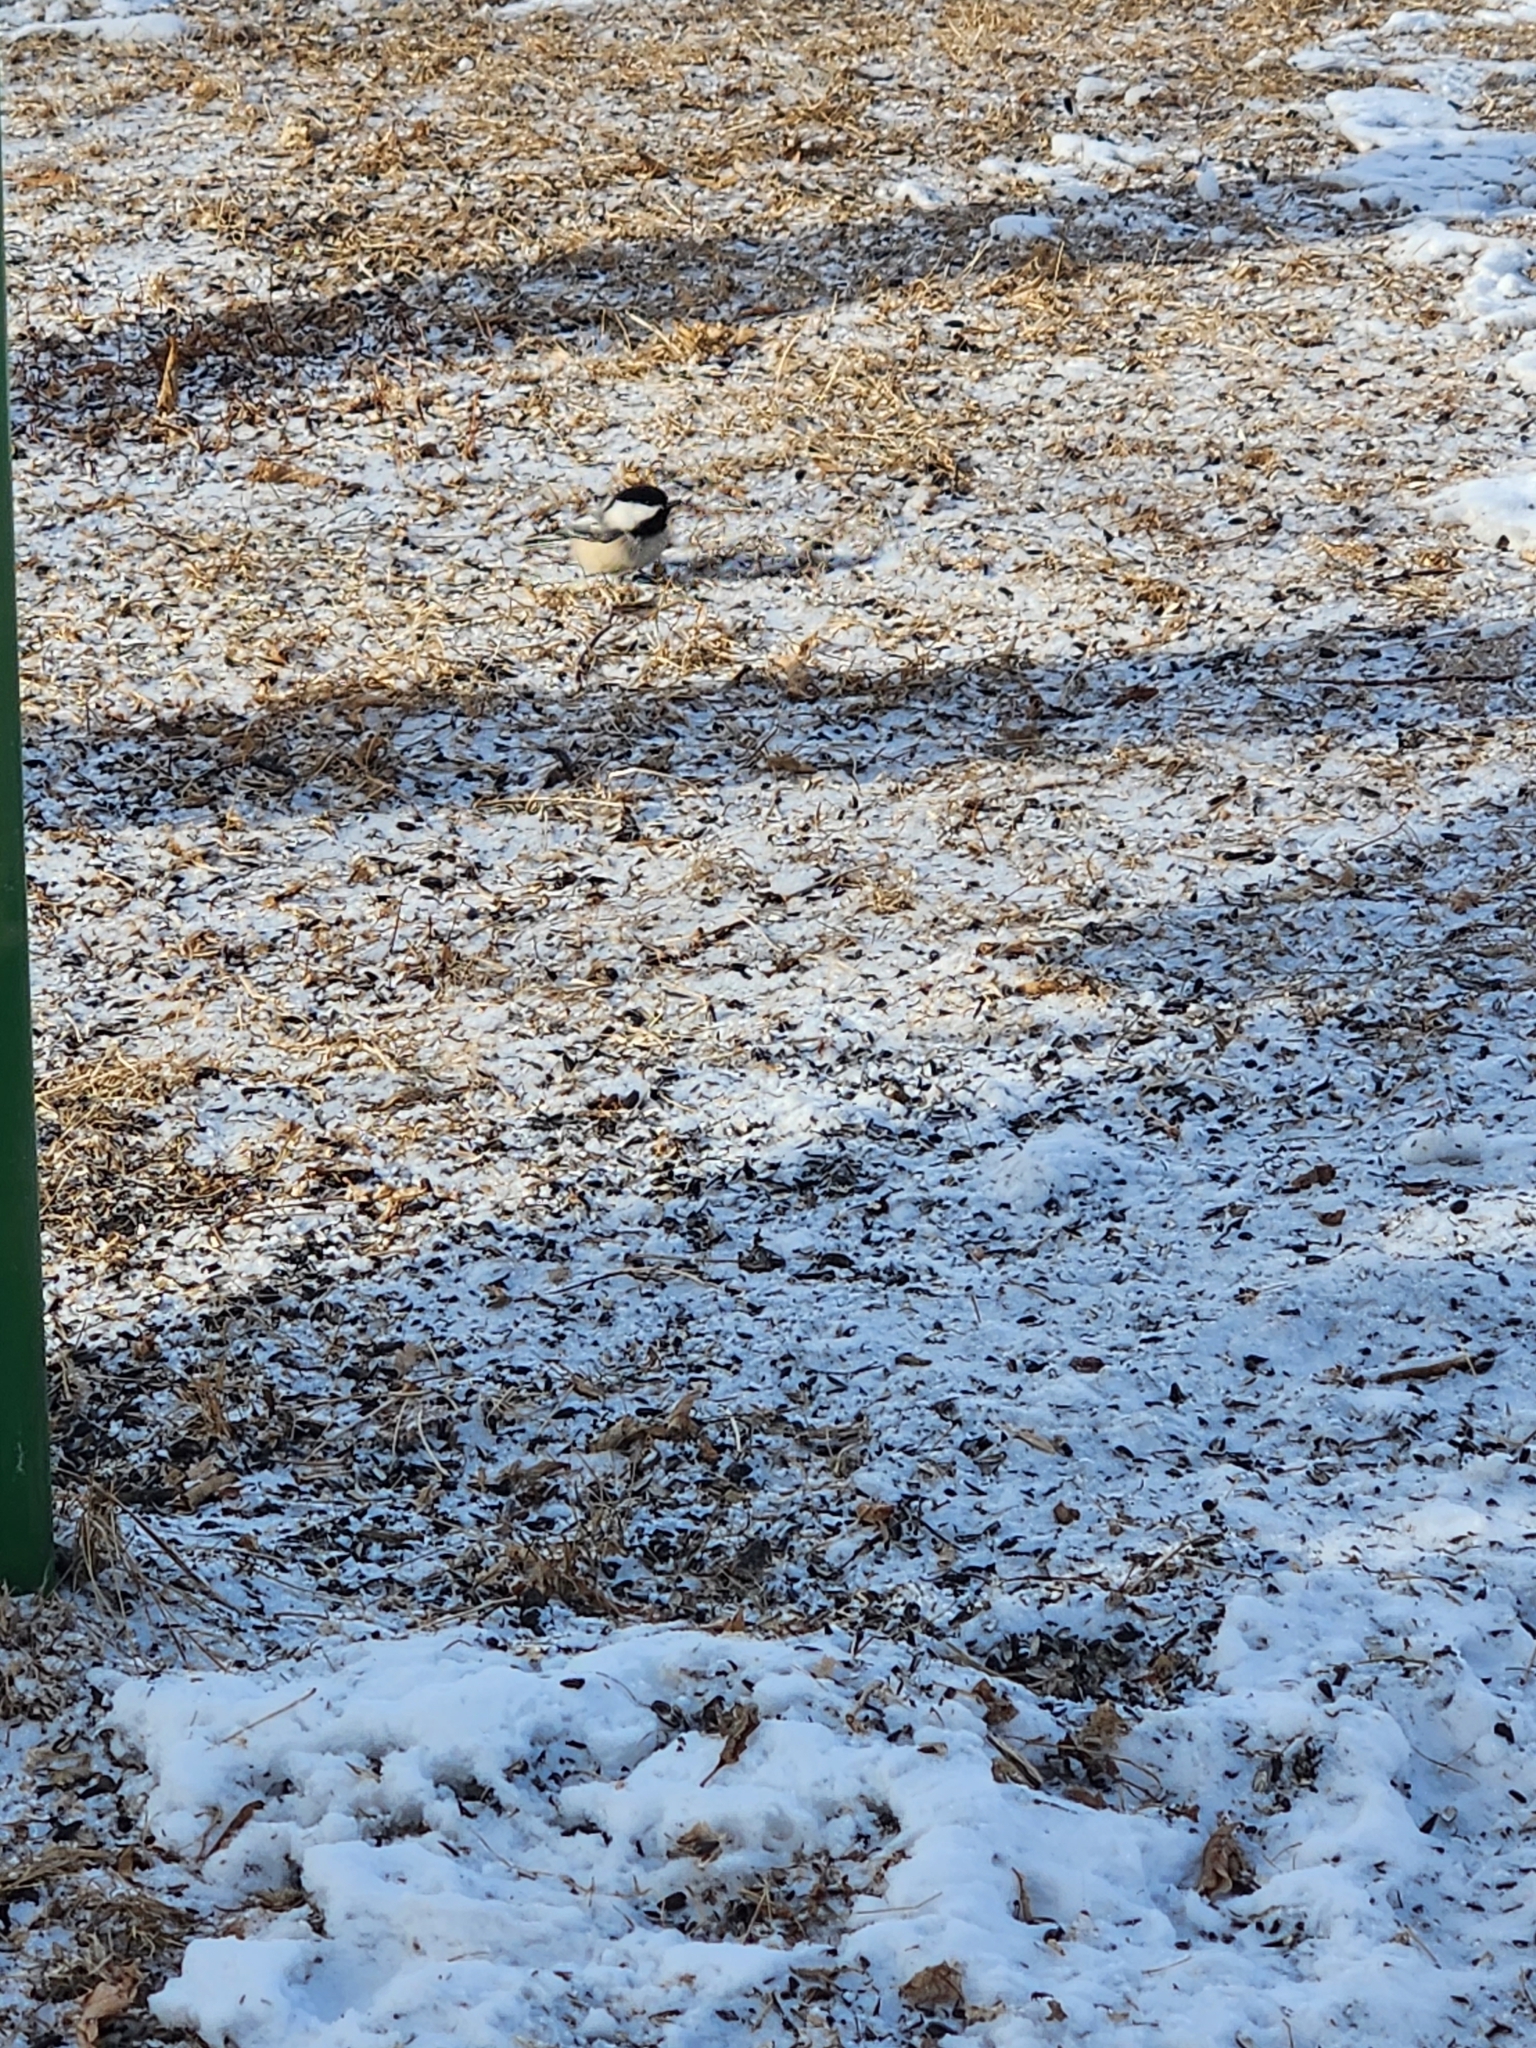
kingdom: Animalia
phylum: Chordata
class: Aves
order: Passeriformes
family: Paridae
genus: Poecile
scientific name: Poecile atricapillus
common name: Black-capped chickadee
